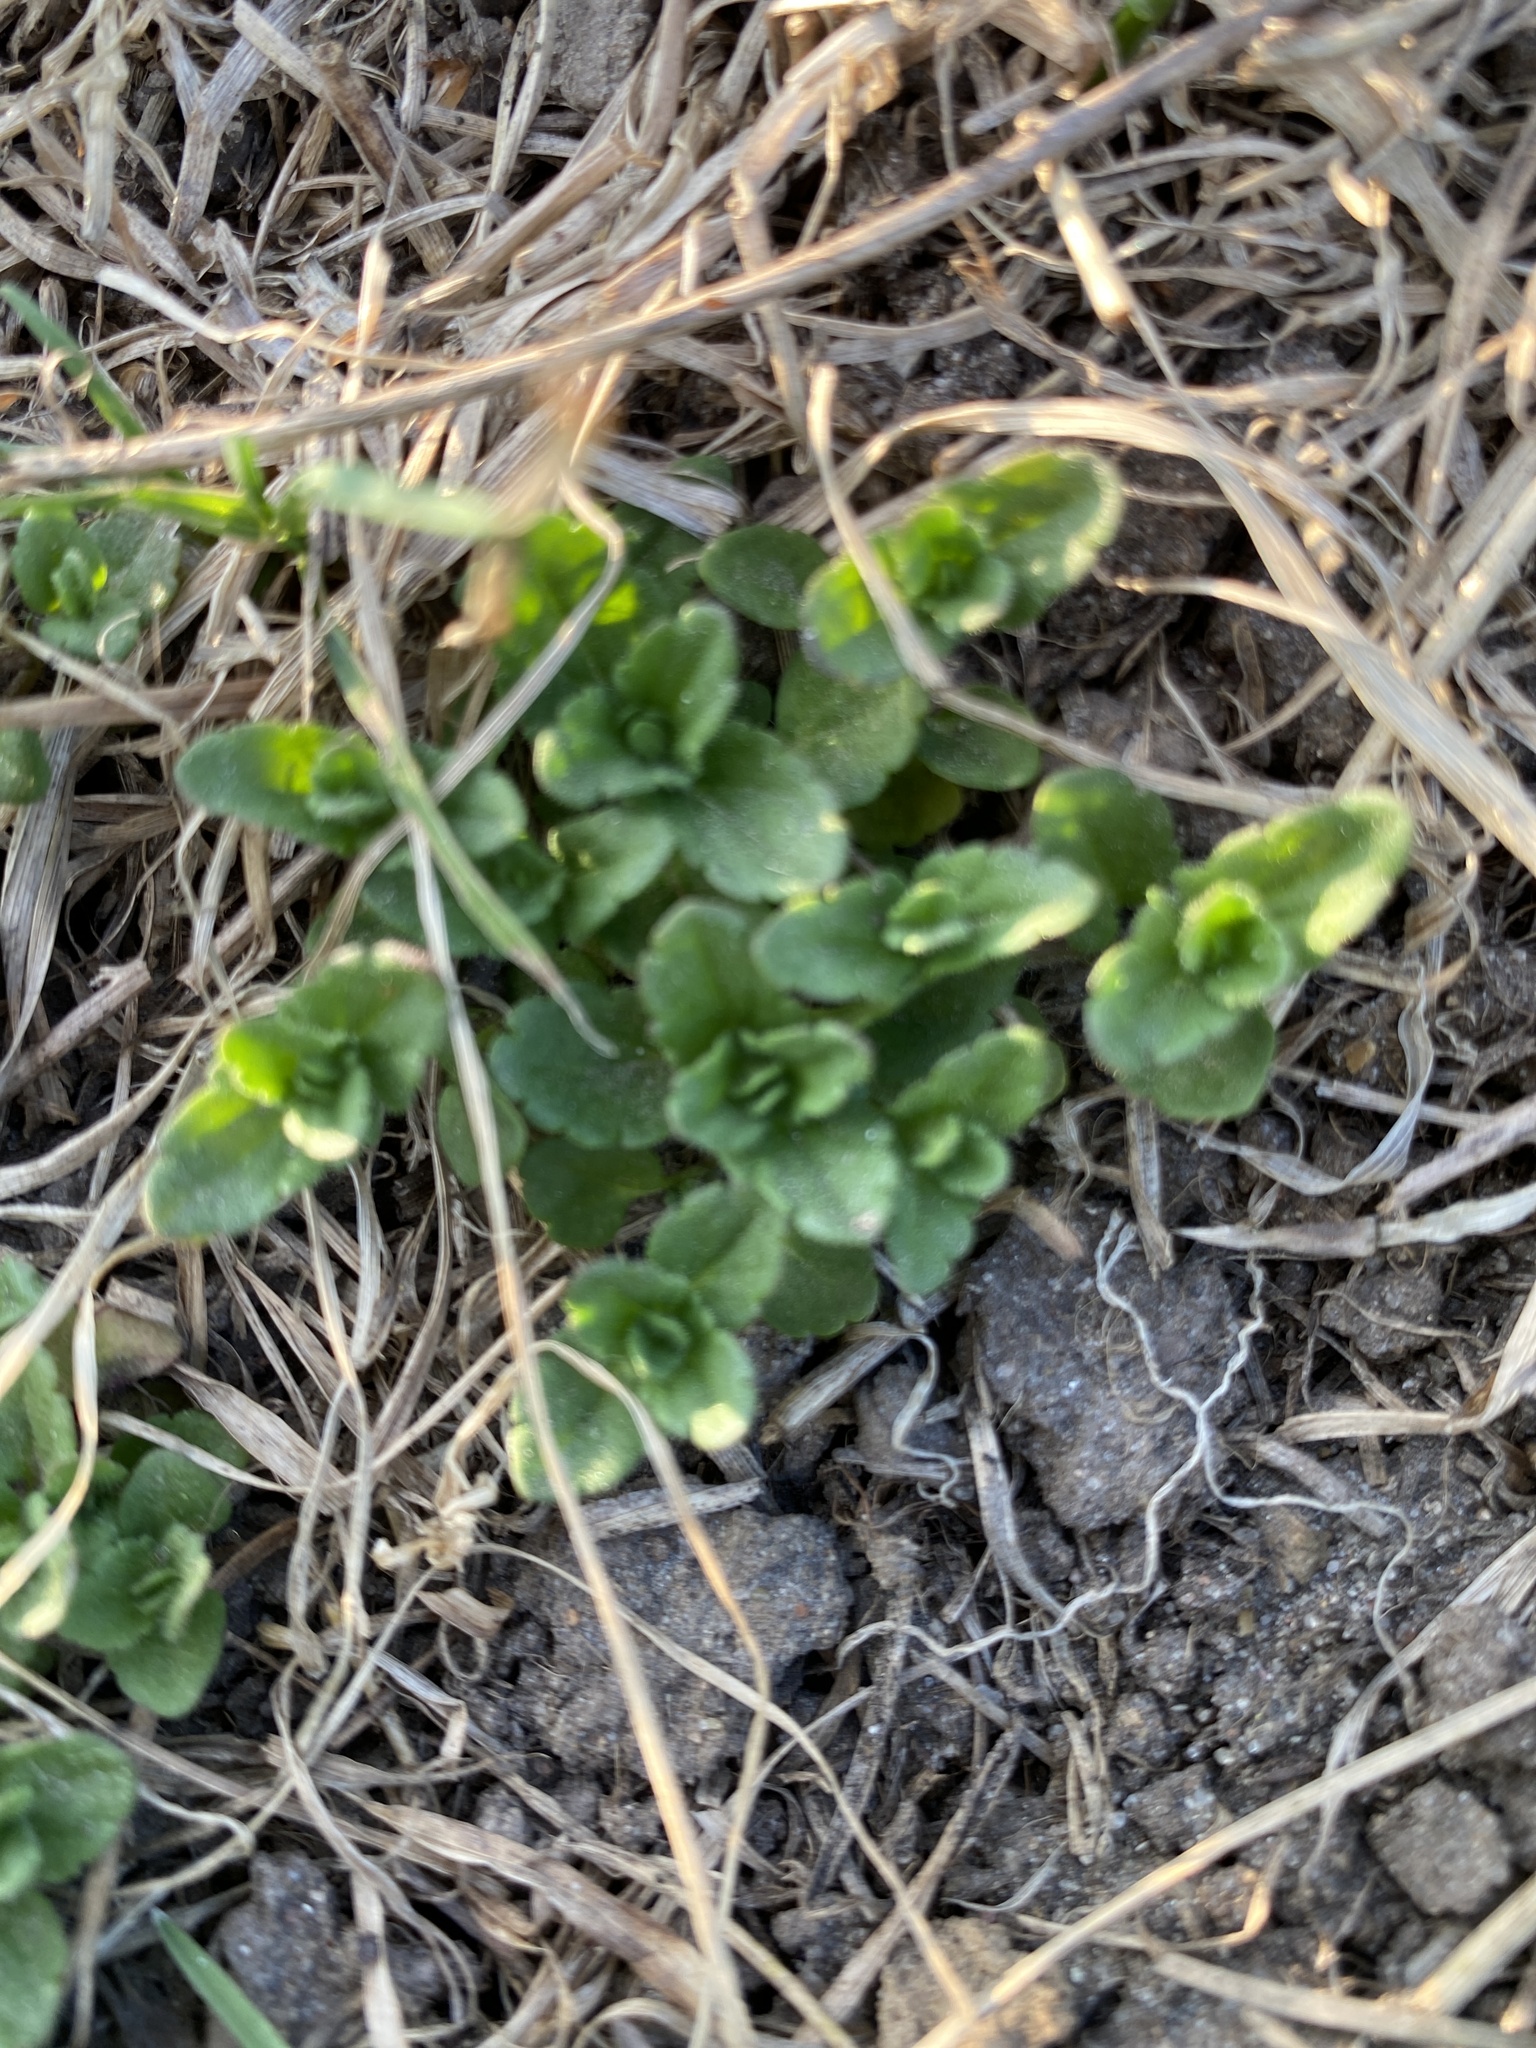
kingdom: Plantae
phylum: Tracheophyta
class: Magnoliopsida
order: Lamiales
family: Plantaginaceae
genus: Veronica
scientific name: Veronica chamaedrys
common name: Germander speedwell
